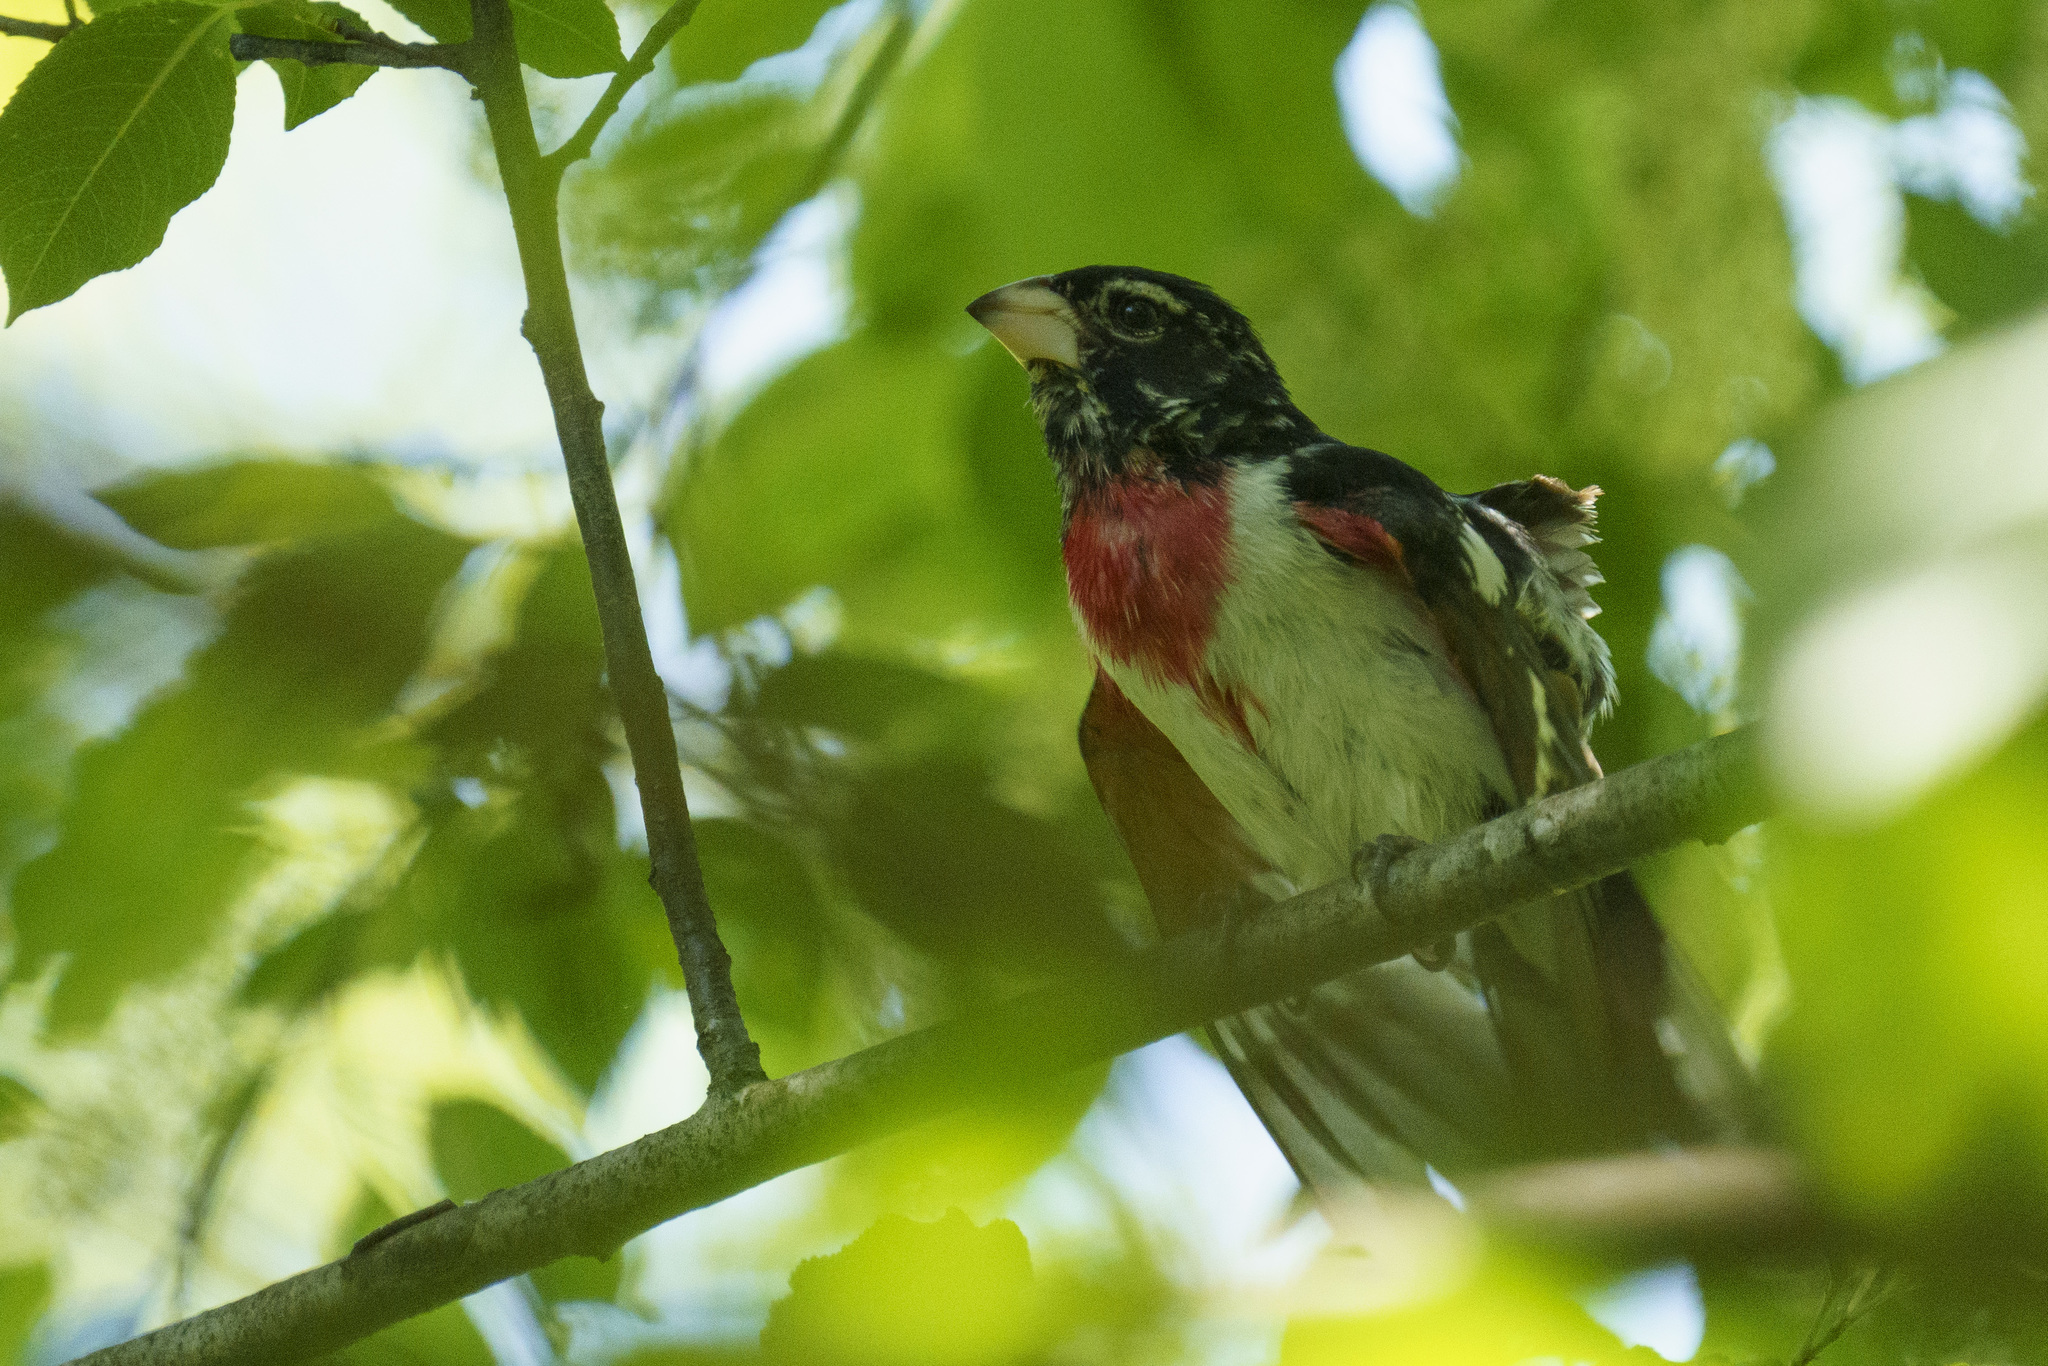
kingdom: Animalia
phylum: Chordata
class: Aves
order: Passeriformes
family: Cardinalidae
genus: Pheucticus
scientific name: Pheucticus ludovicianus
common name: Rose-breasted grosbeak
